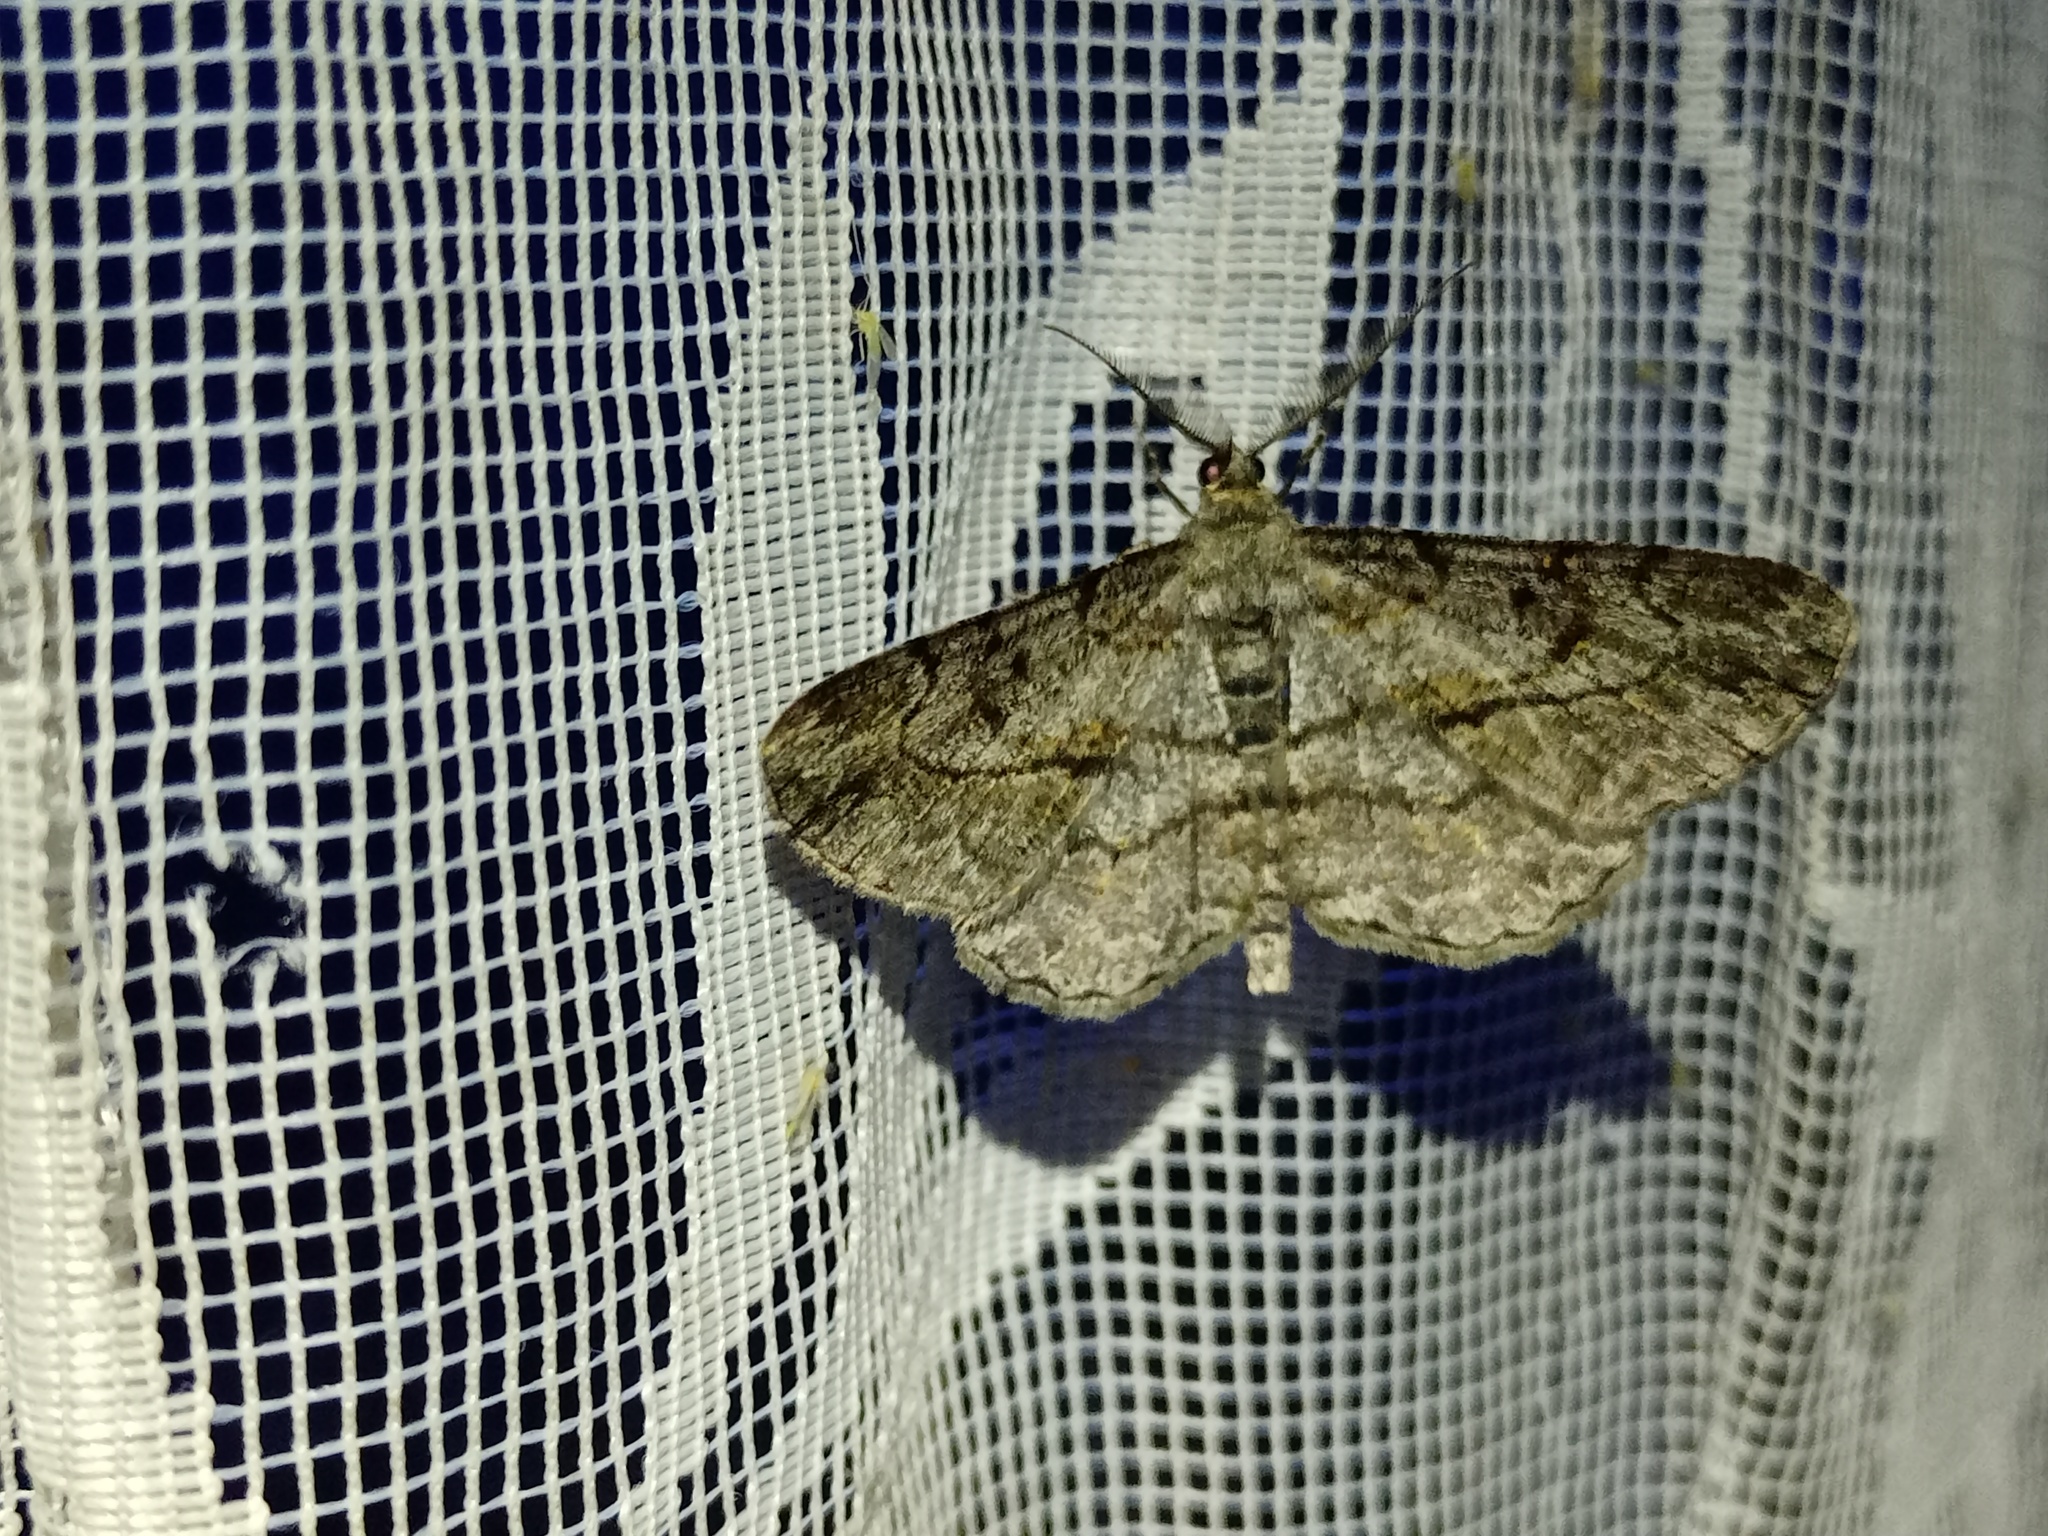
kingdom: Animalia
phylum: Arthropoda
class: Insecta
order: Lepidoptera
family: Geometridae
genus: Peribatodes
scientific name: Peribatodes rhomboidaria
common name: Willow beauty
